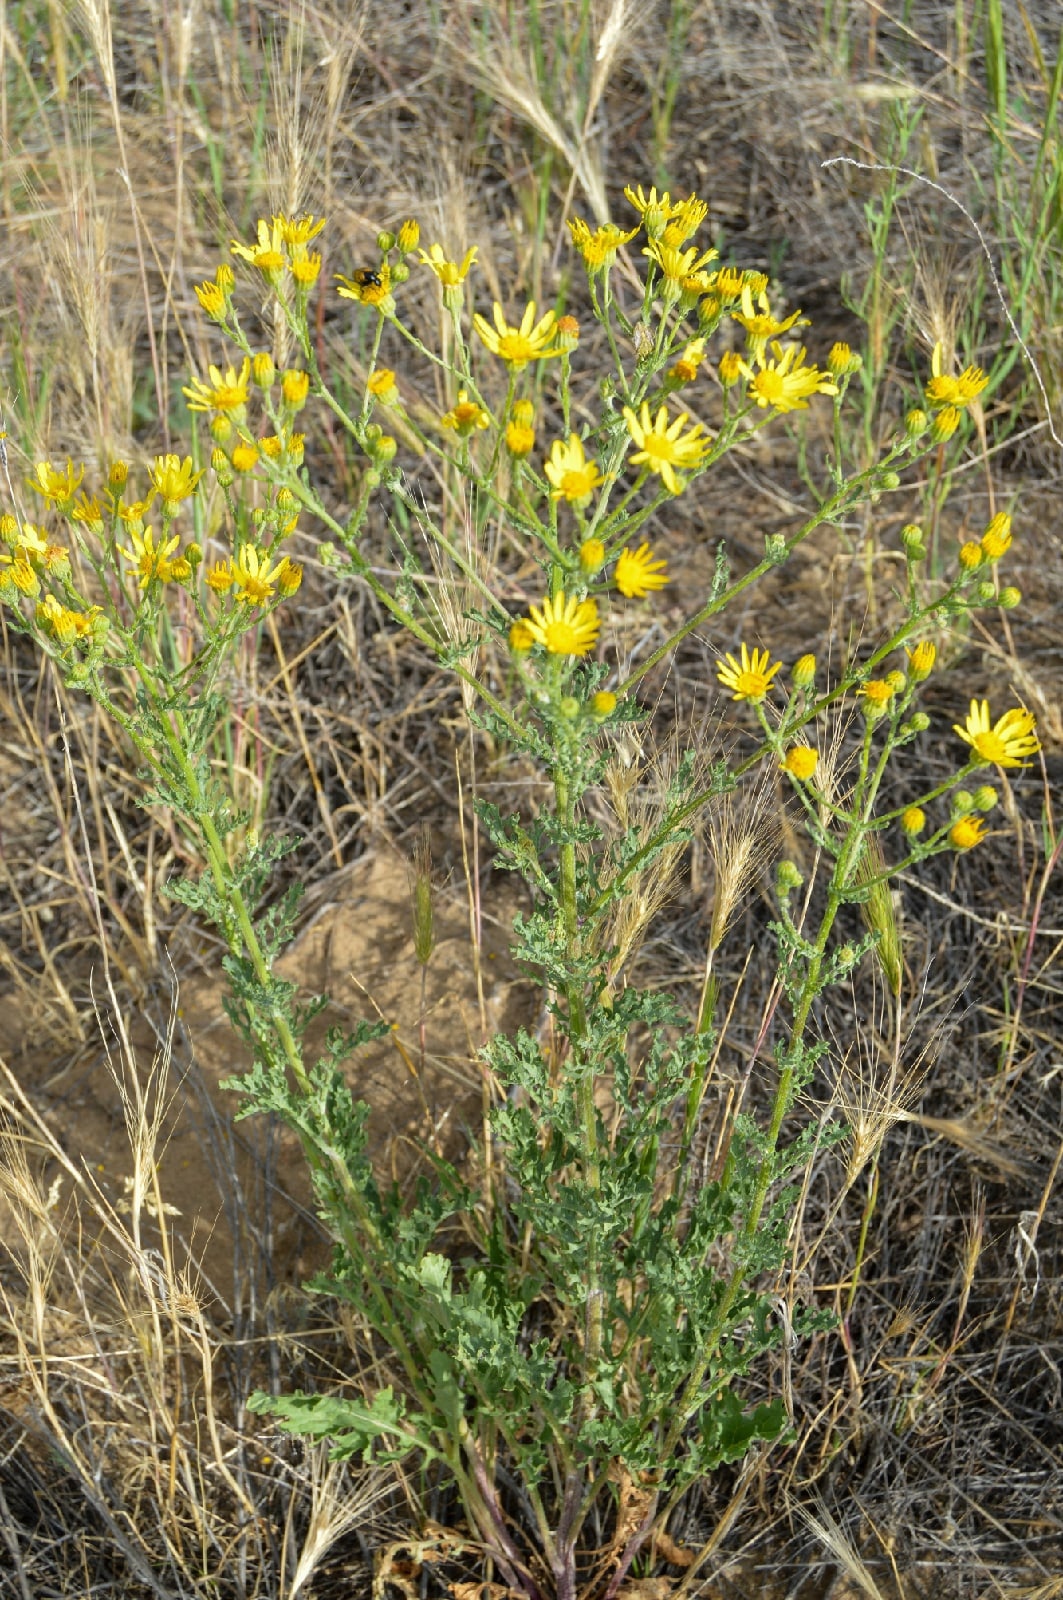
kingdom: Plantae
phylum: Tracheophyta
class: Magnoliopsida
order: Asterales
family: Asteraceae
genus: Jacobaea
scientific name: Jacobaea vulgaris
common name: Stinking willie
